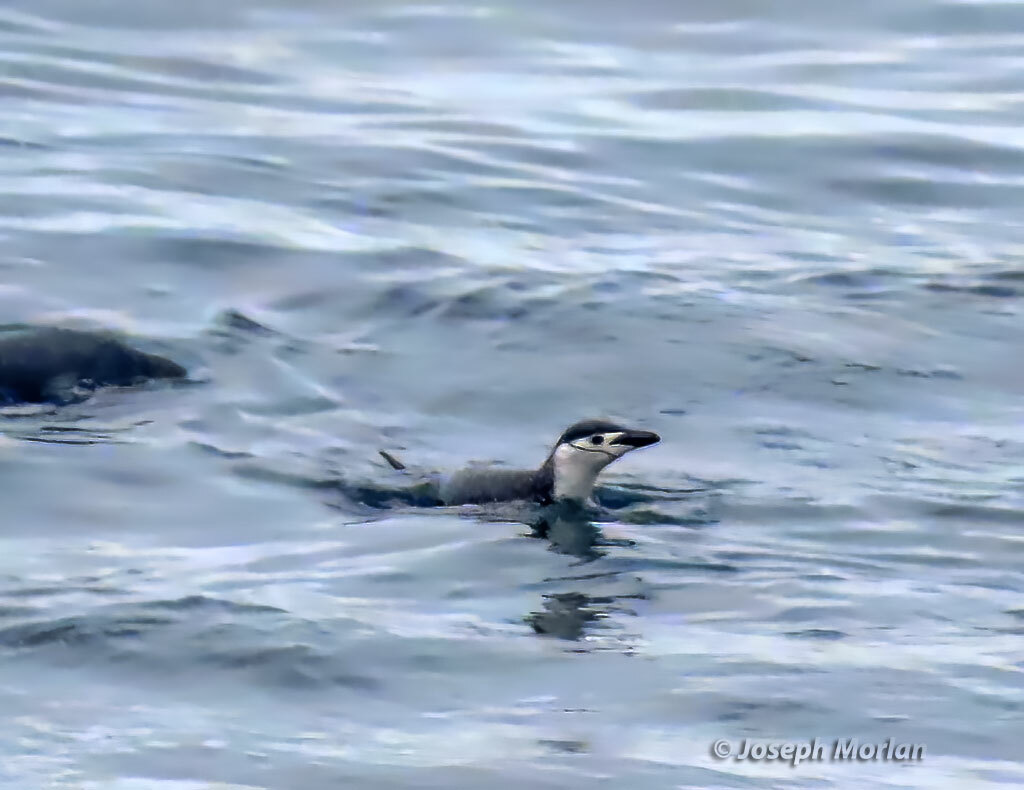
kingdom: Animalia
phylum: Chordata
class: Aves
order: Sphenisciformes
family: Spheniscidae
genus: Pygoscelis
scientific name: Pygoscelis antarcticus
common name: Chinstrap penguin
